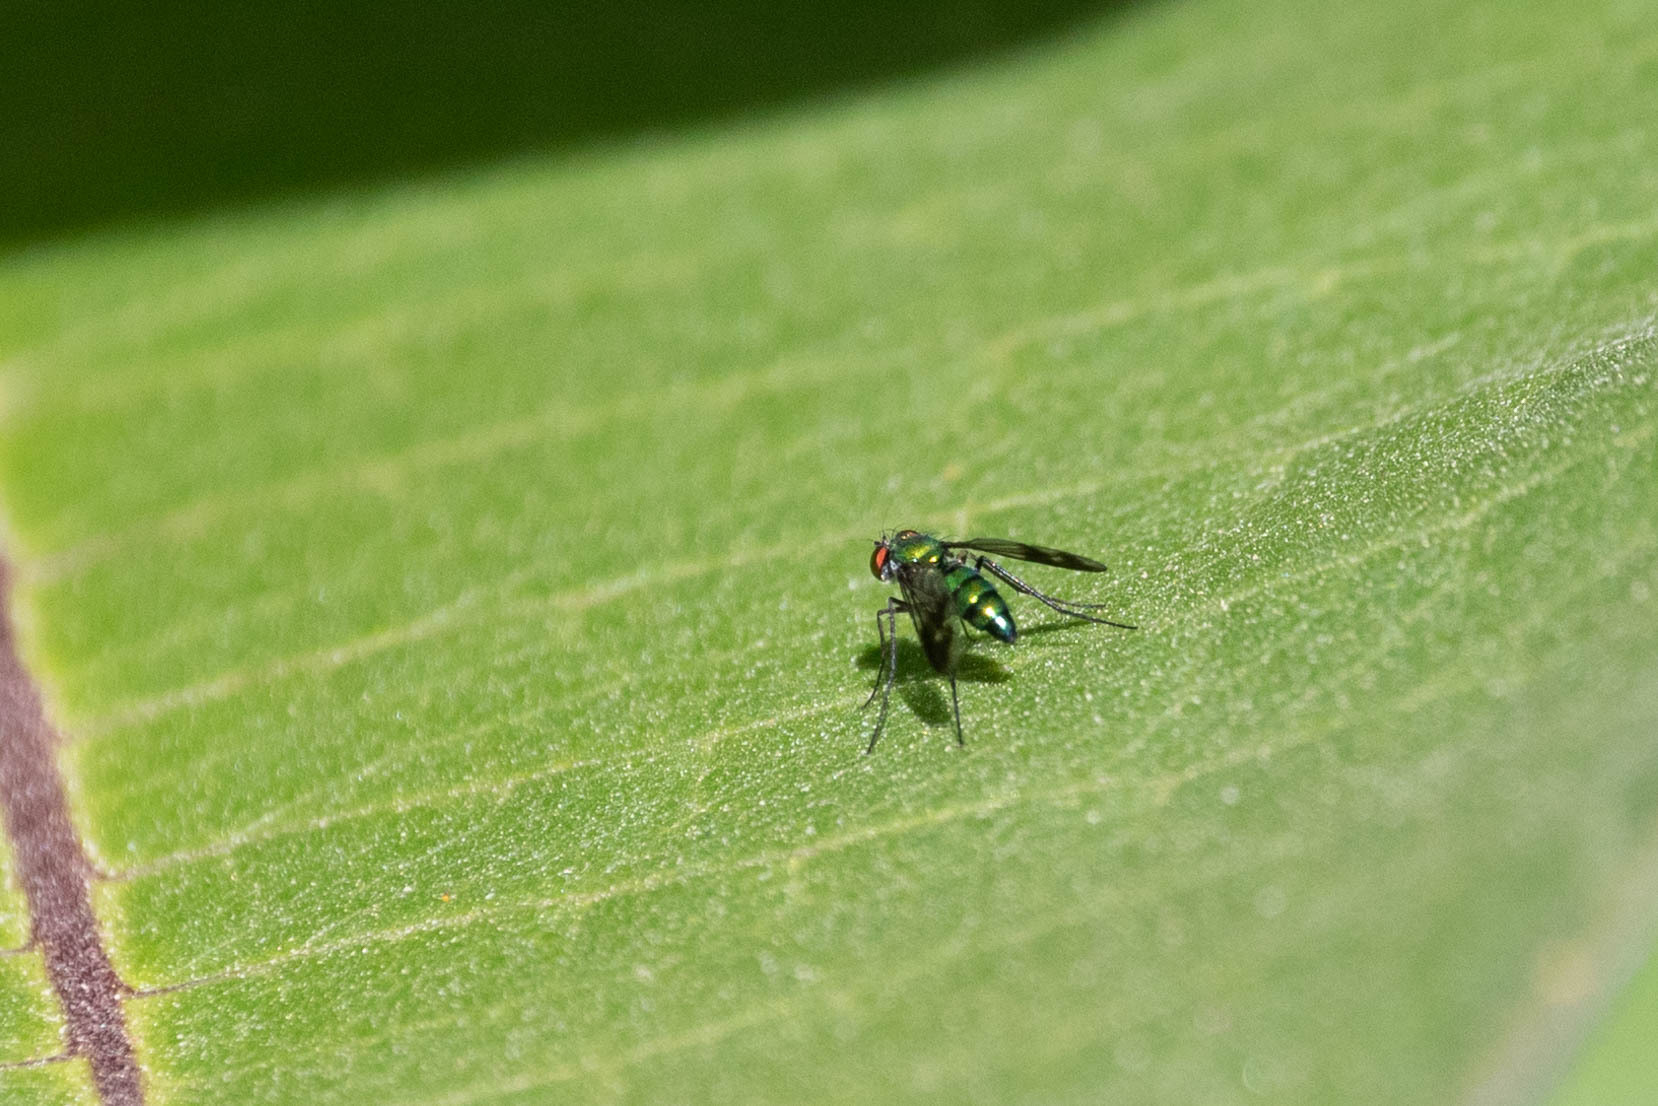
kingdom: Animalia
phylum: Arthropoda
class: Insecta
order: Diptera
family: Dolichopodidae
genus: Condylostylus
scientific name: Condylostylus patibulatus
